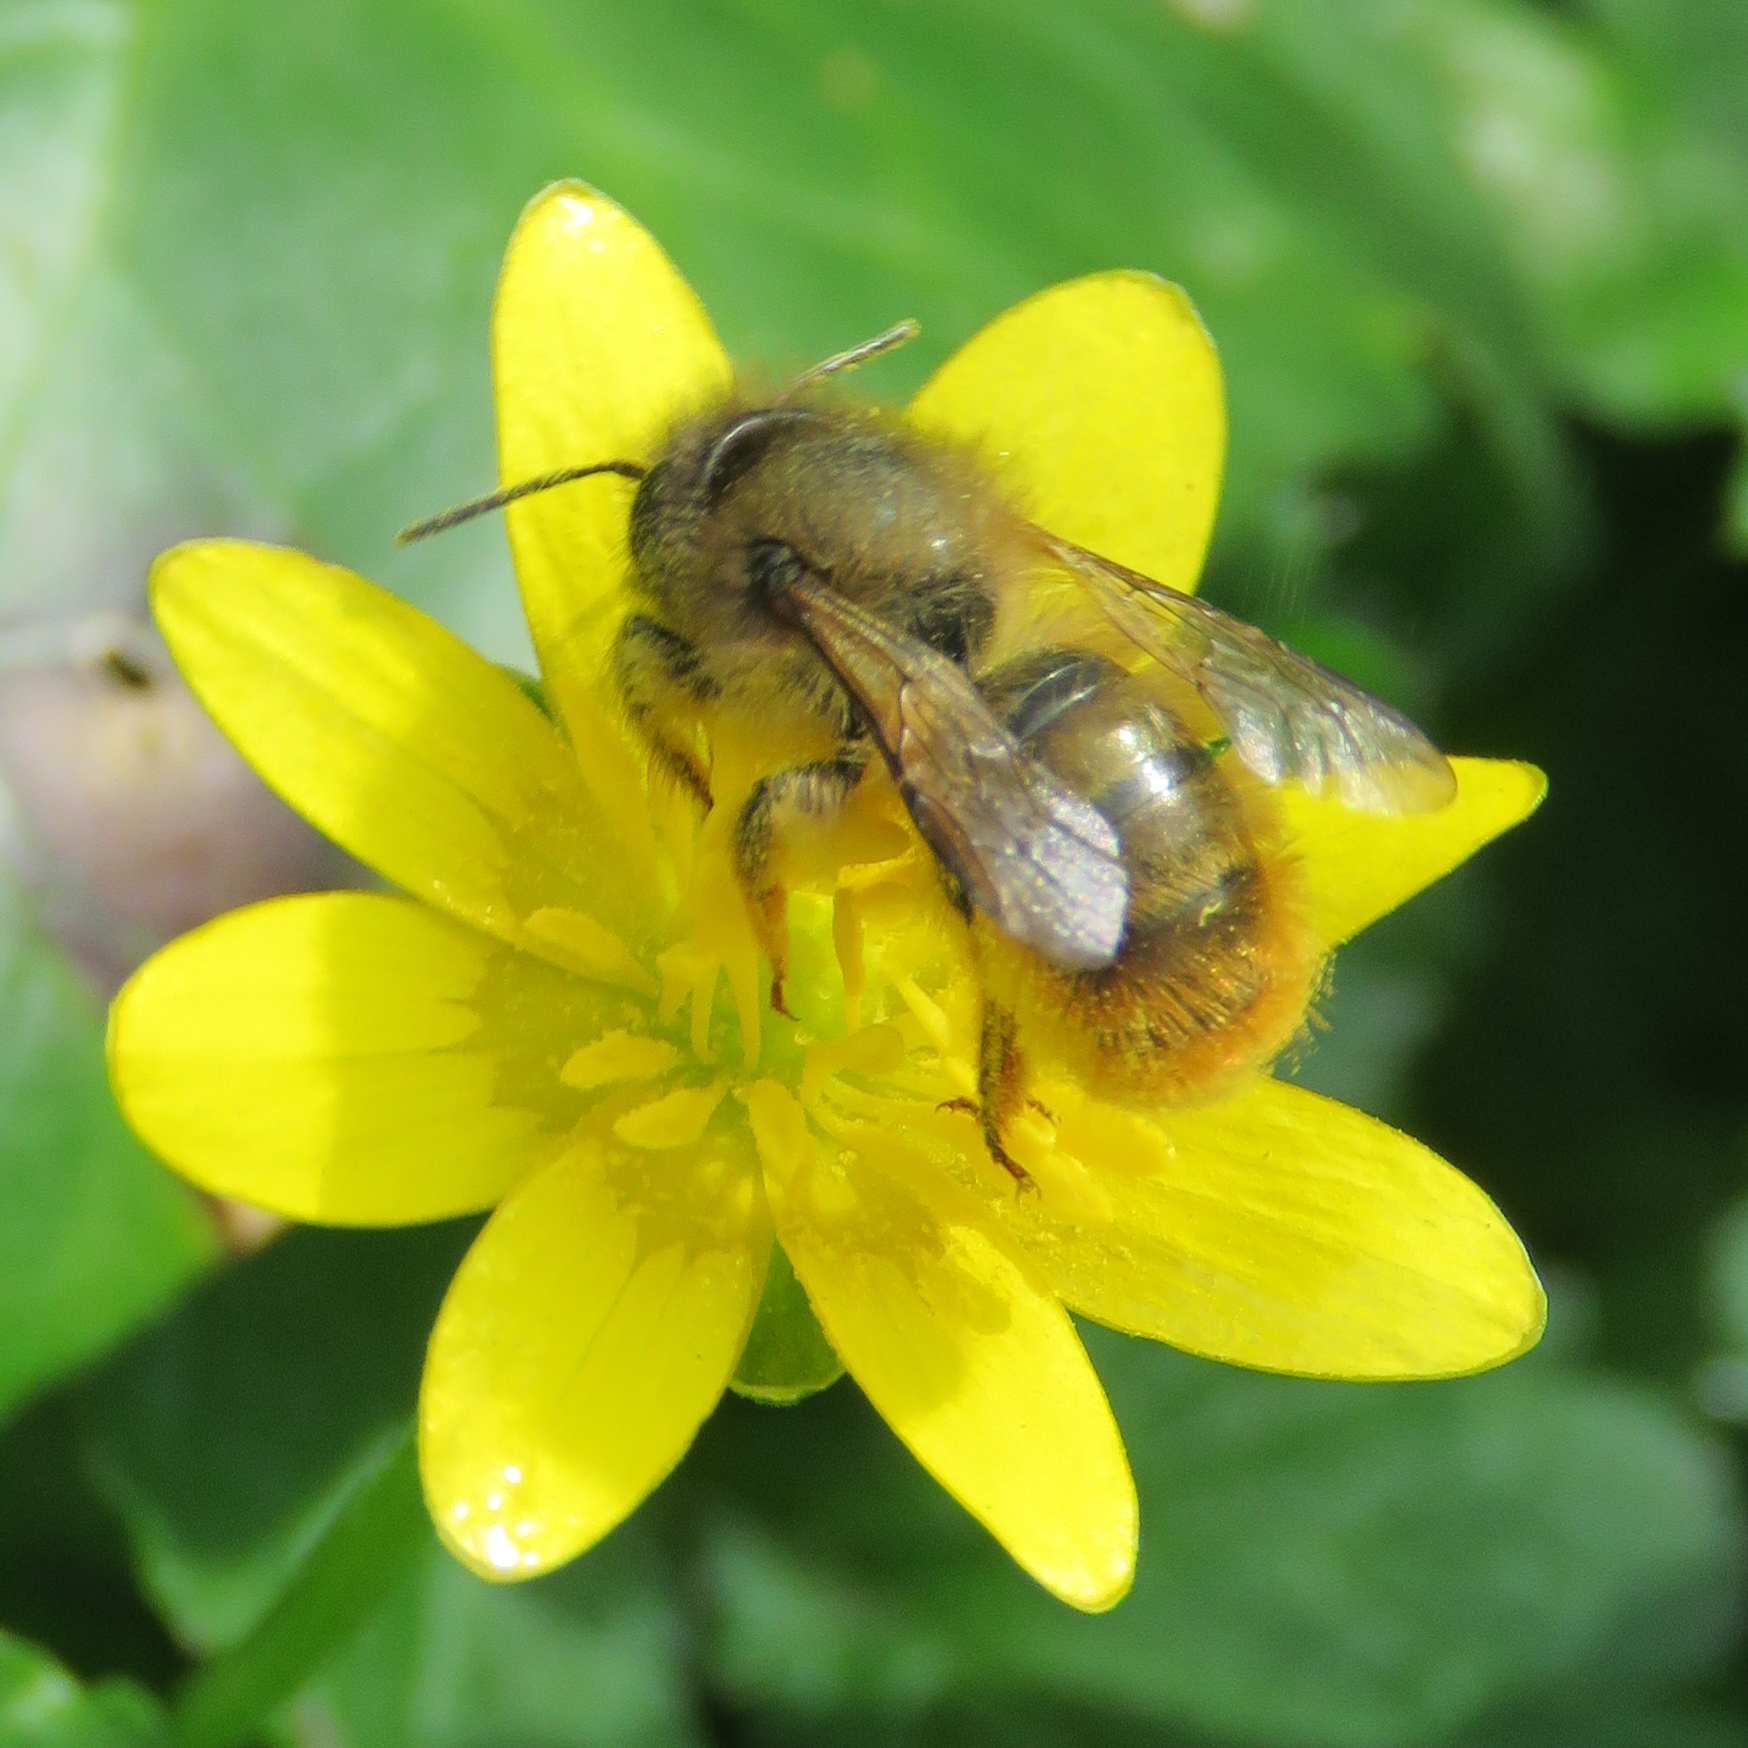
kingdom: Animalia
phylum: Arthropoda
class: Insecta
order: Hymenoptera
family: Megachilidae
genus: Osmia
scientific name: Osmia bicornis
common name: Red mason bee
